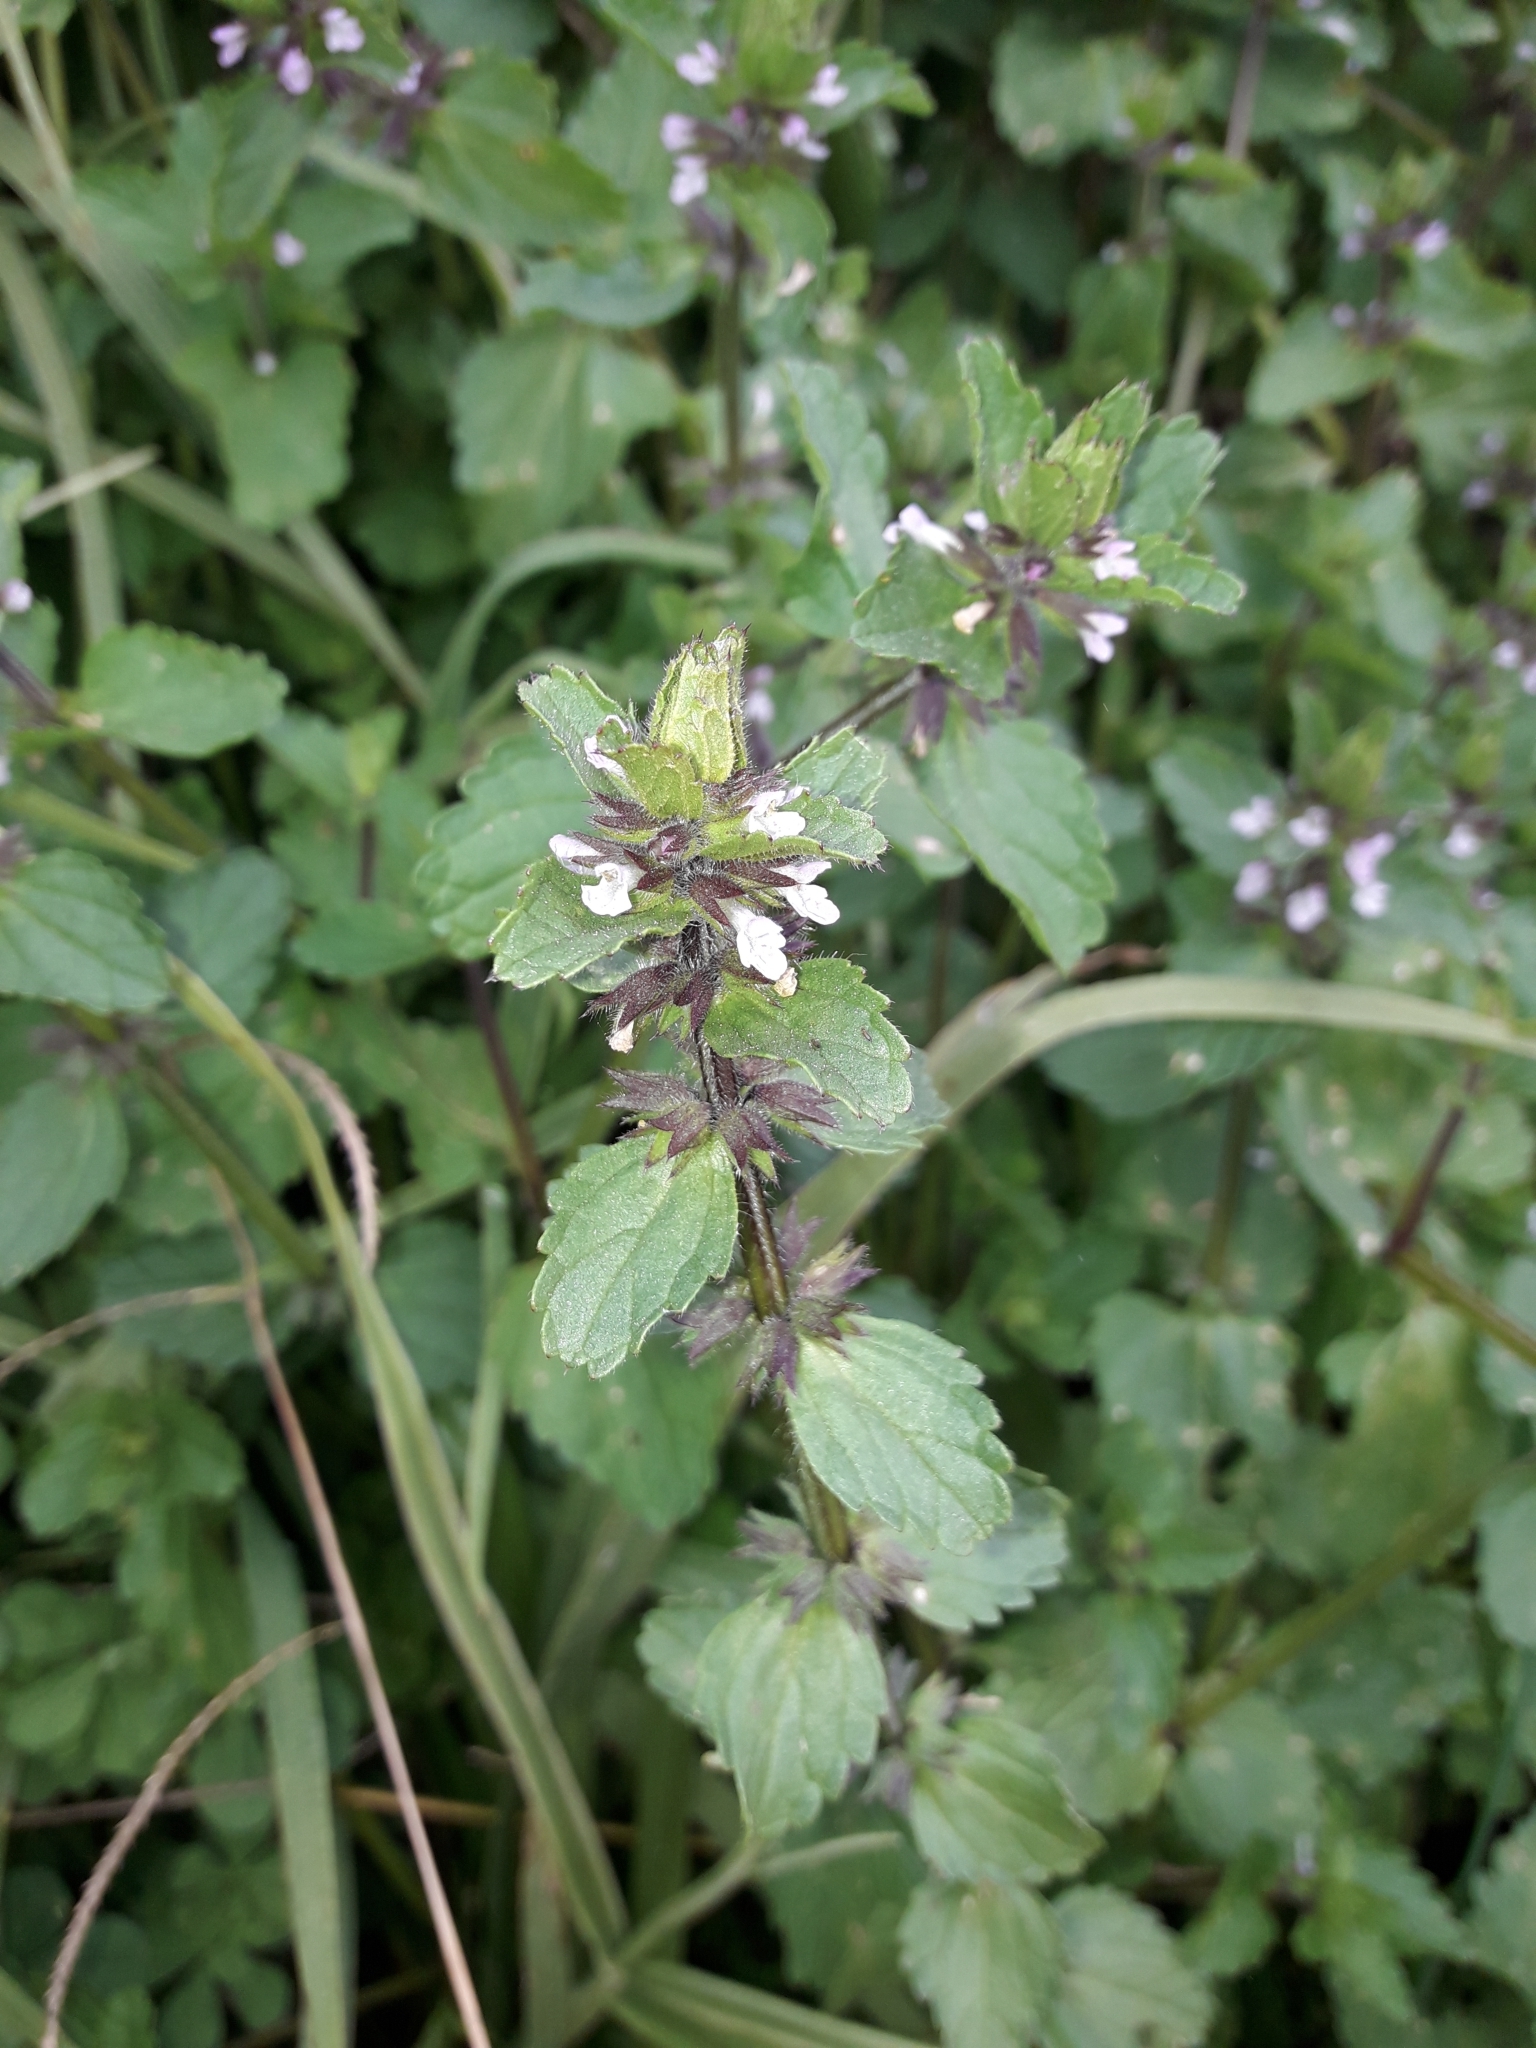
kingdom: Plantae
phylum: Tracheophyta
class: Magnoliopsida
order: Lamiales
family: Lamiaceae
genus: Stachys
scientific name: Stachys arvensis
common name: Field woundwort
